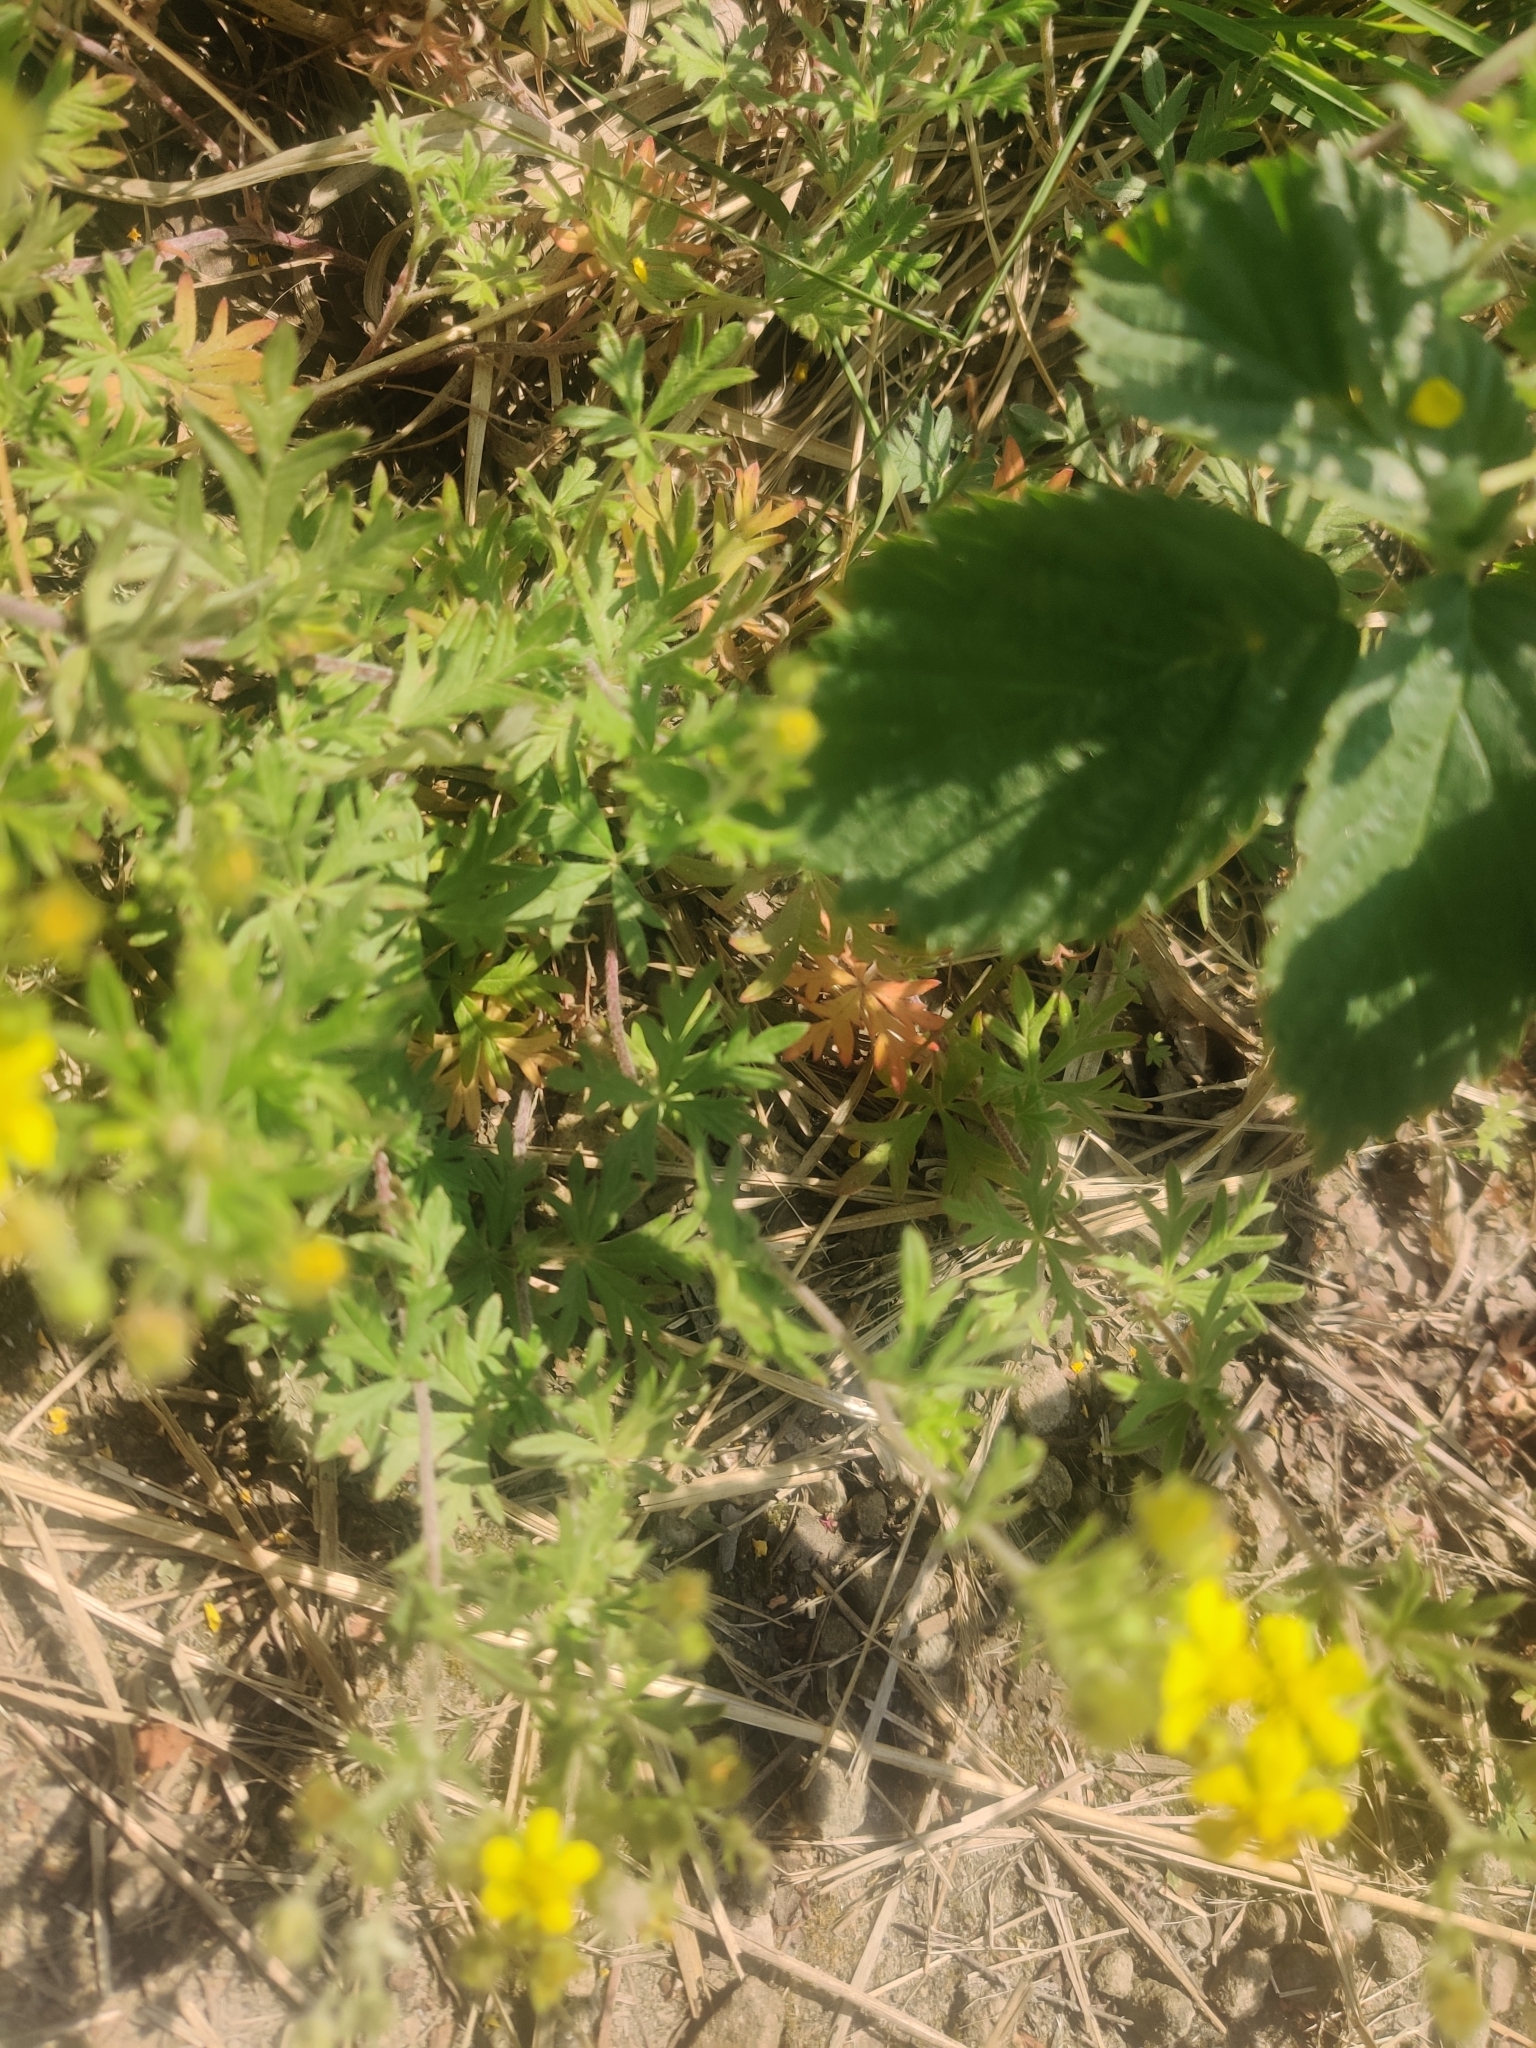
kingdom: Plantae
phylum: Tracheophyta
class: Magnoliopsida
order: Rosales
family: Rosaceae
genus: Potentilla
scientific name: Potentilla argentea
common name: Hoary cinquefoil
